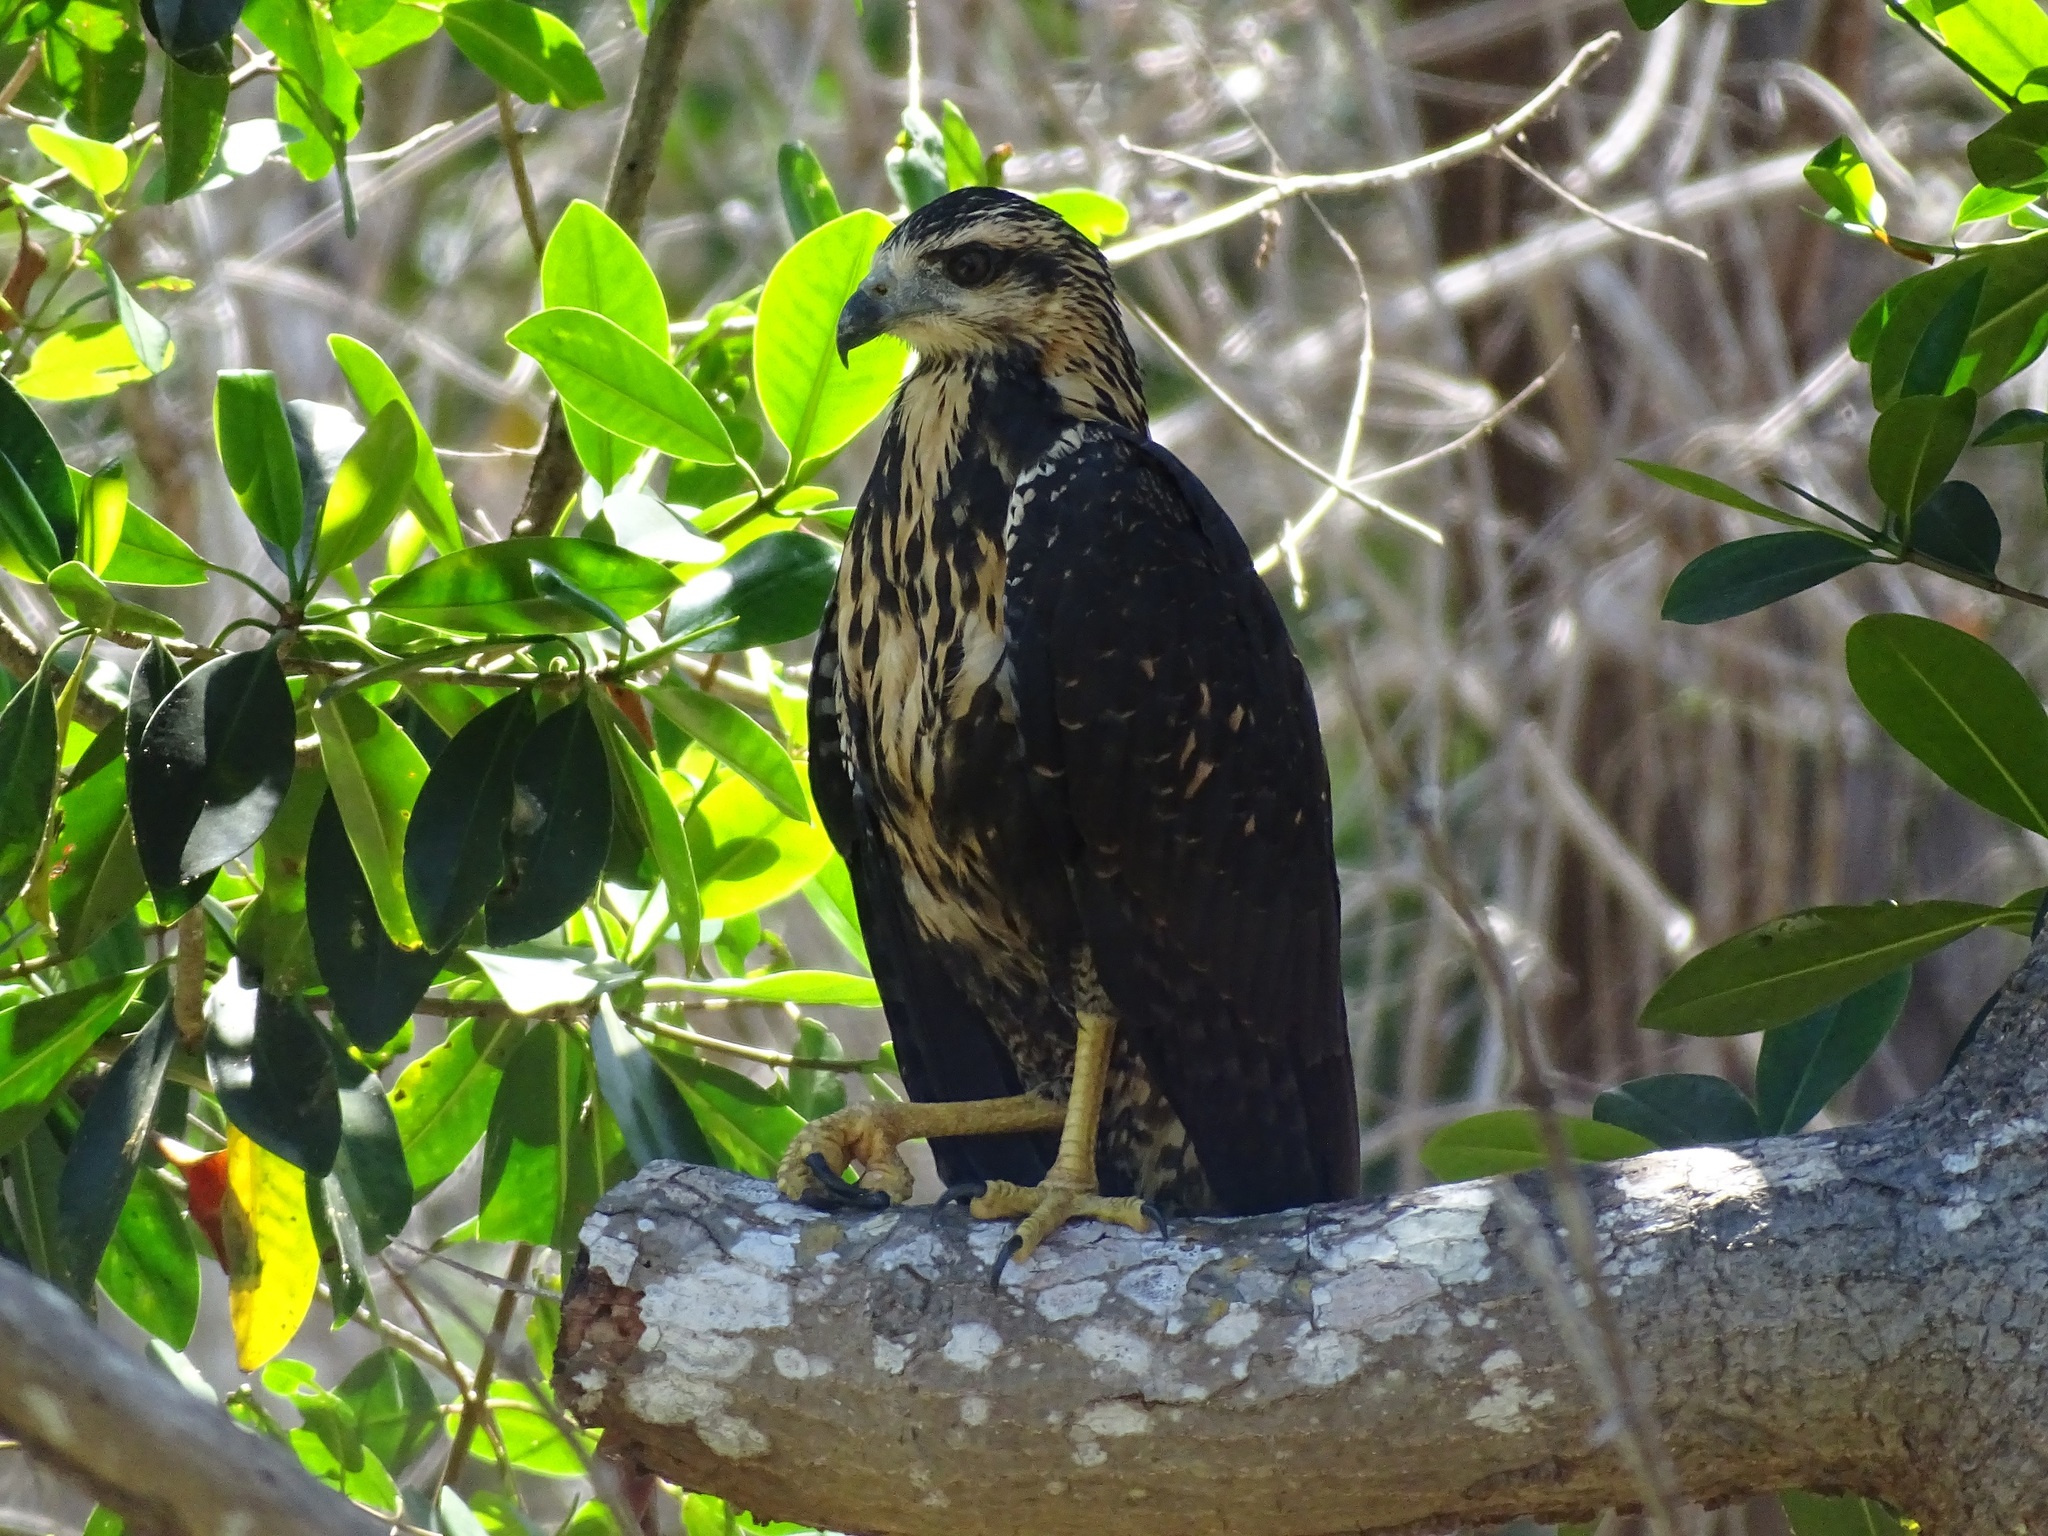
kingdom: Animalia
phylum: Chordata
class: Aves
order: Accipitriformes
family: Accipitridae
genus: Buteogallus
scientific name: Buteogallus anthracinus
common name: Common black hawk
